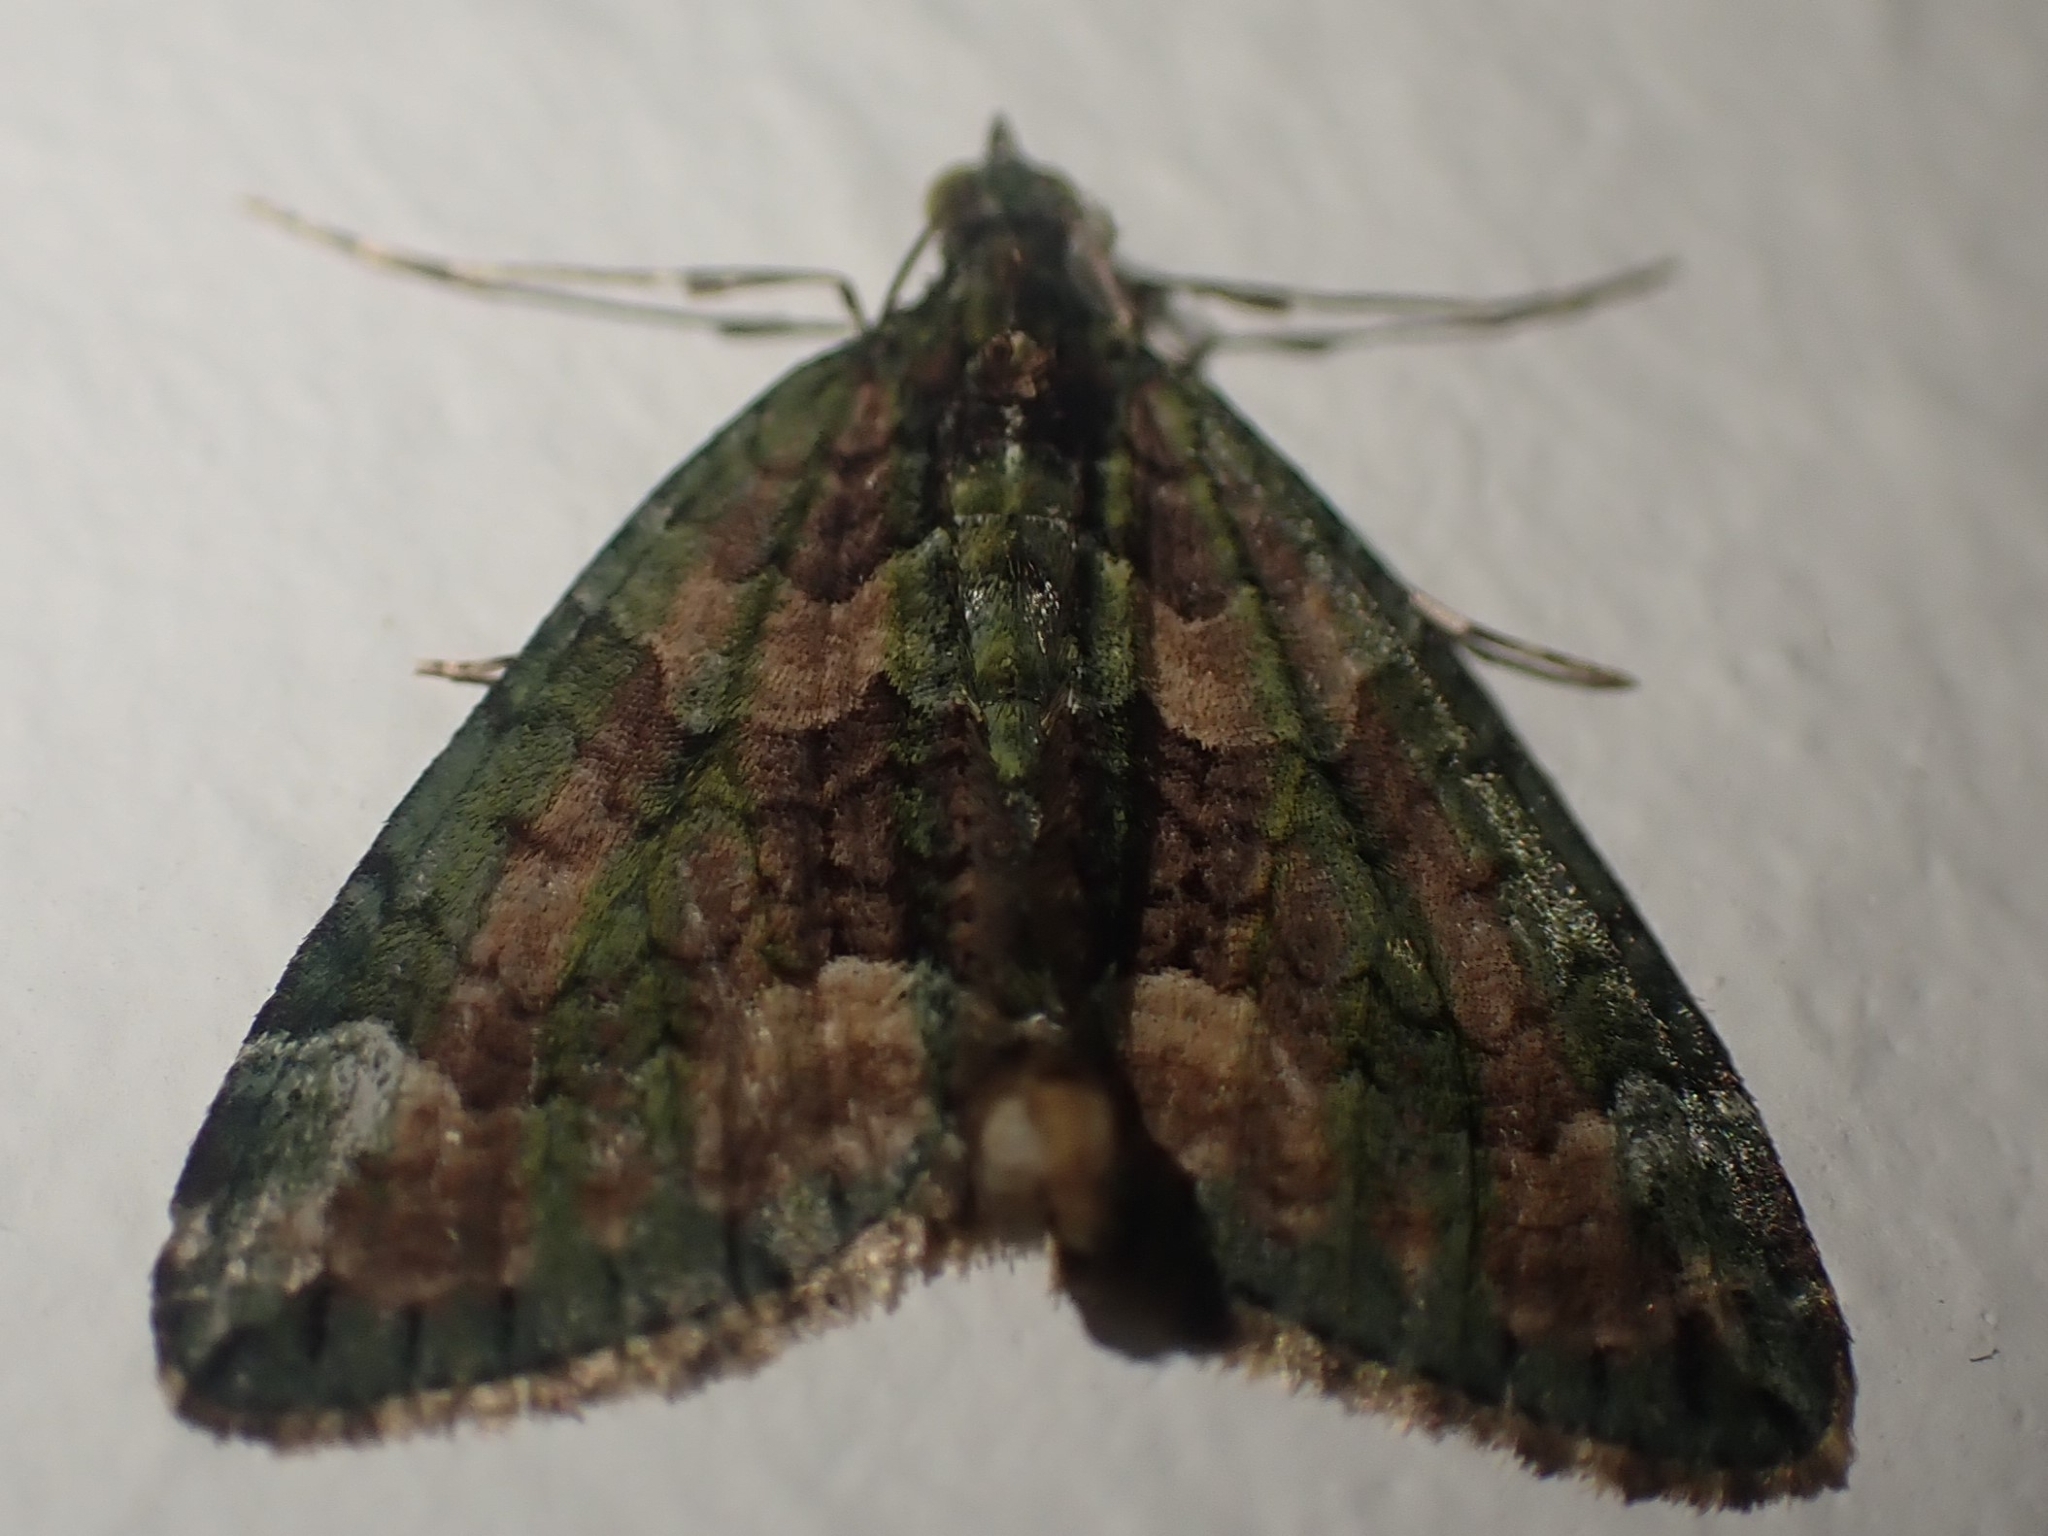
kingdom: Animalia
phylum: Arthropoda
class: Insecta
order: Lepidoptera
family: Geometridae
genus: Chloroclysta
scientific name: Chloroclysta siterata
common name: Red-green carpet
